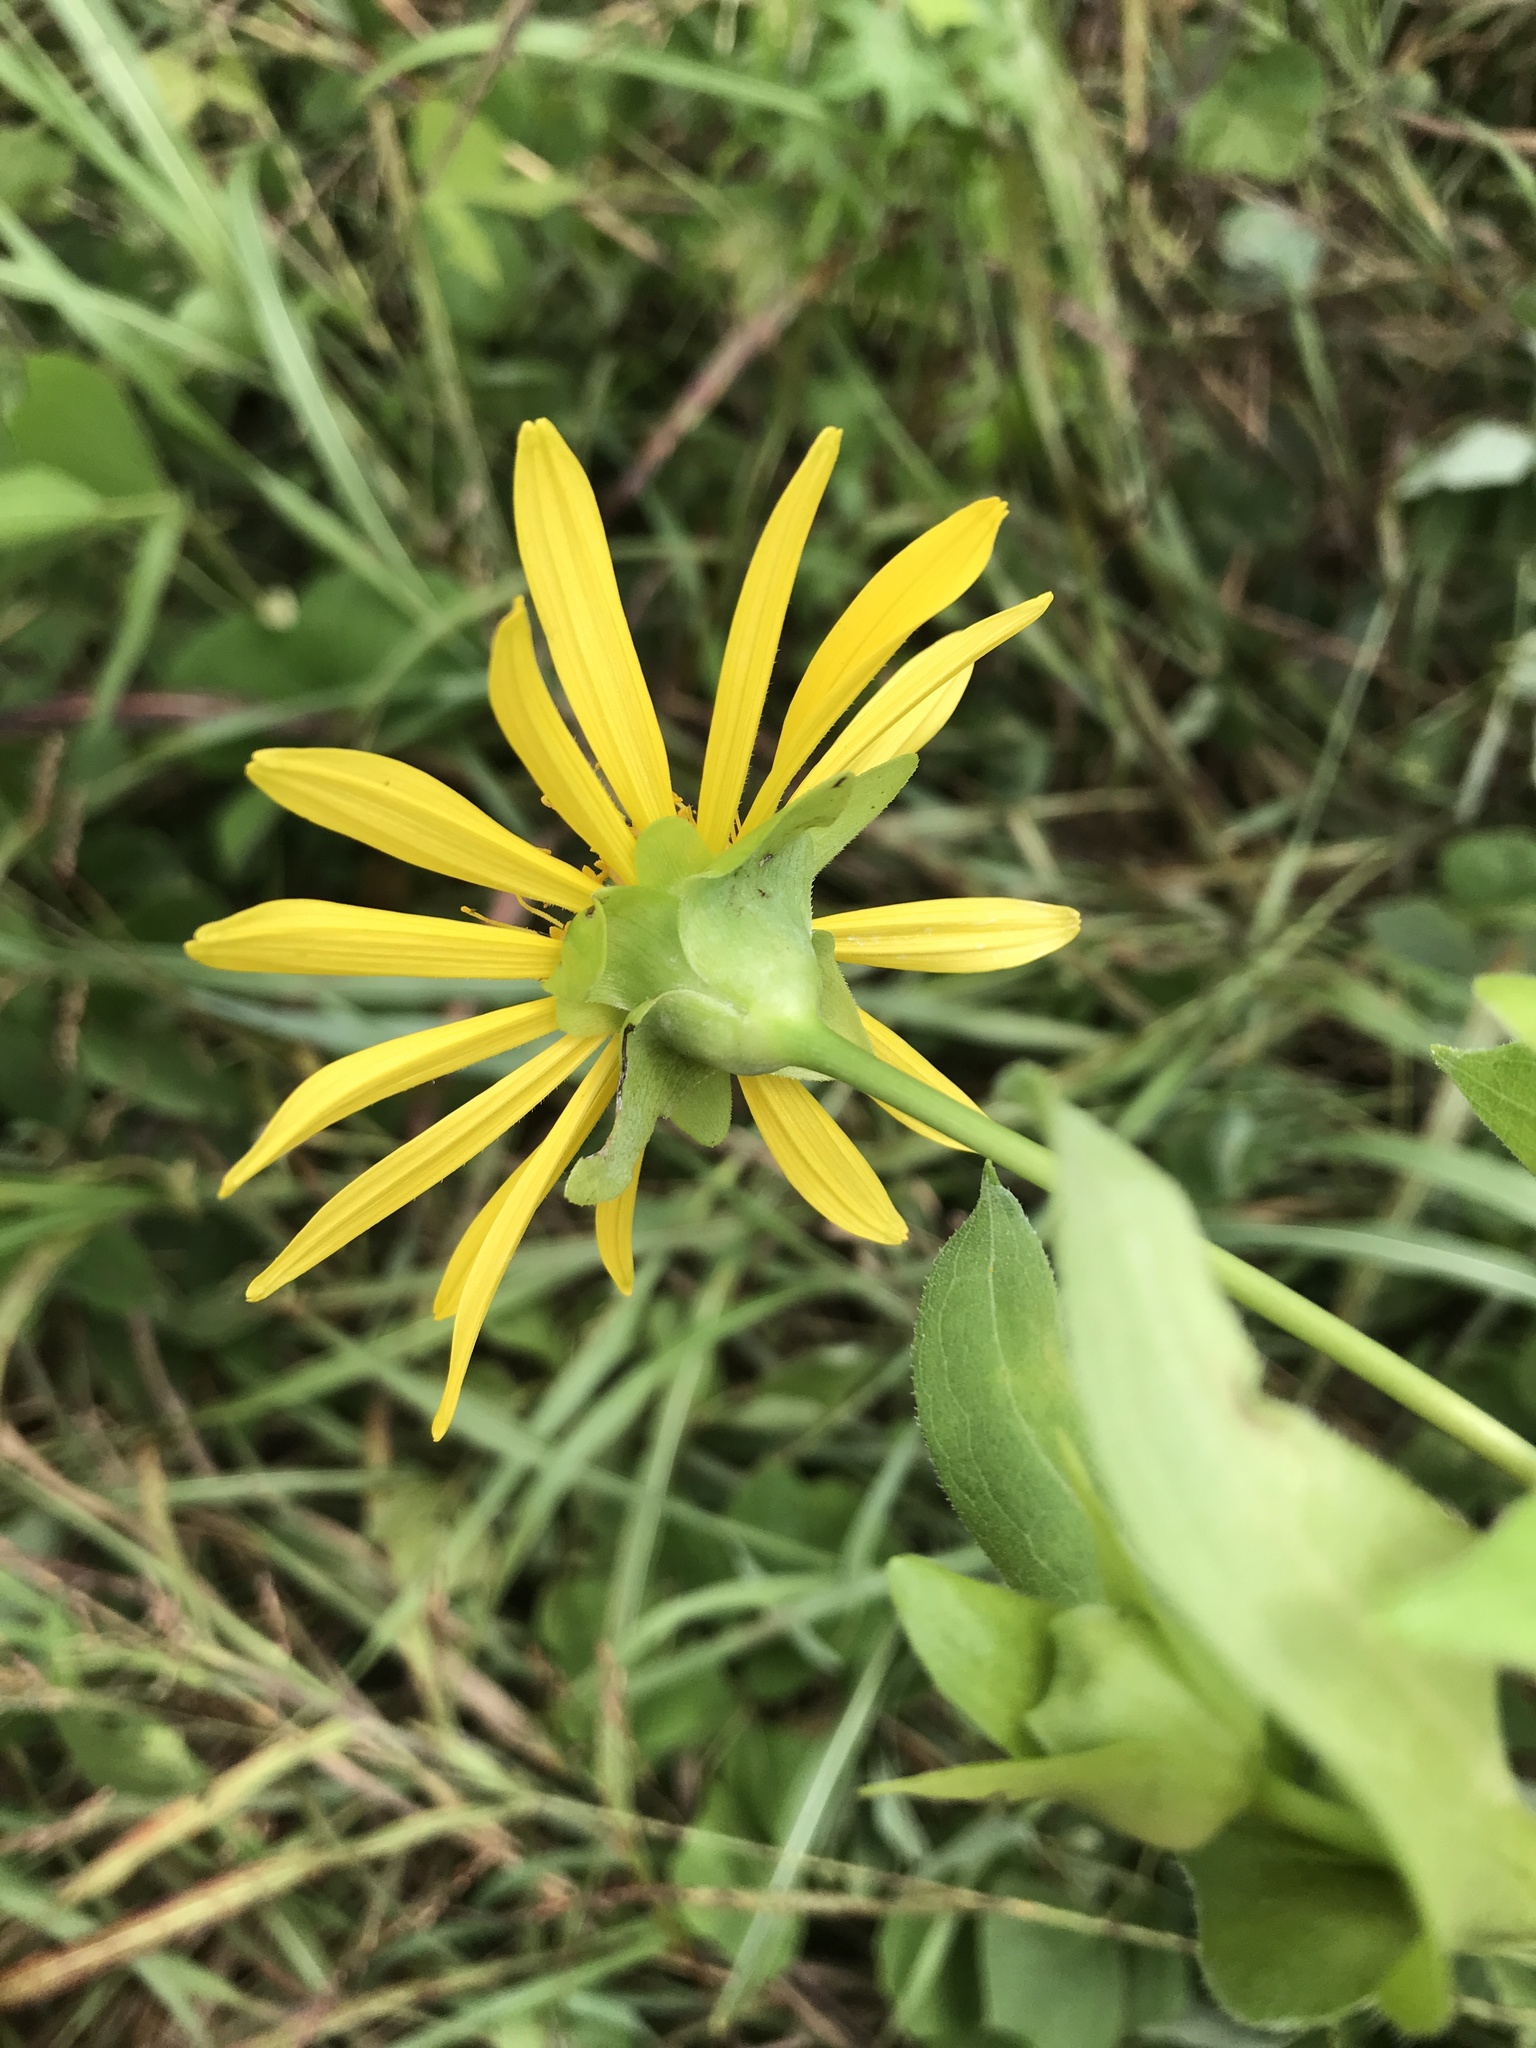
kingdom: Plantae
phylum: Tracheophyta
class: Magnoliopsida
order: Asterales
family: Asteraceae
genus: Silphium
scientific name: Silphium perfoliatum
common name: Cup-plant
